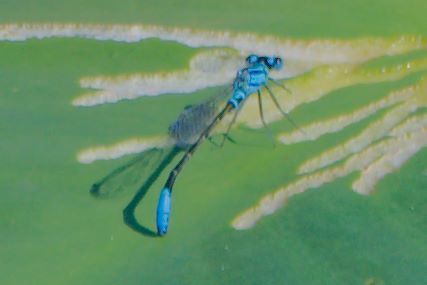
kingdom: Animalia
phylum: Arthropoda
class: Insecta
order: Odonata
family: Coenagrionidae
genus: Ischnura
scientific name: Ischnura kellicotti
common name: Lilypad forktail
